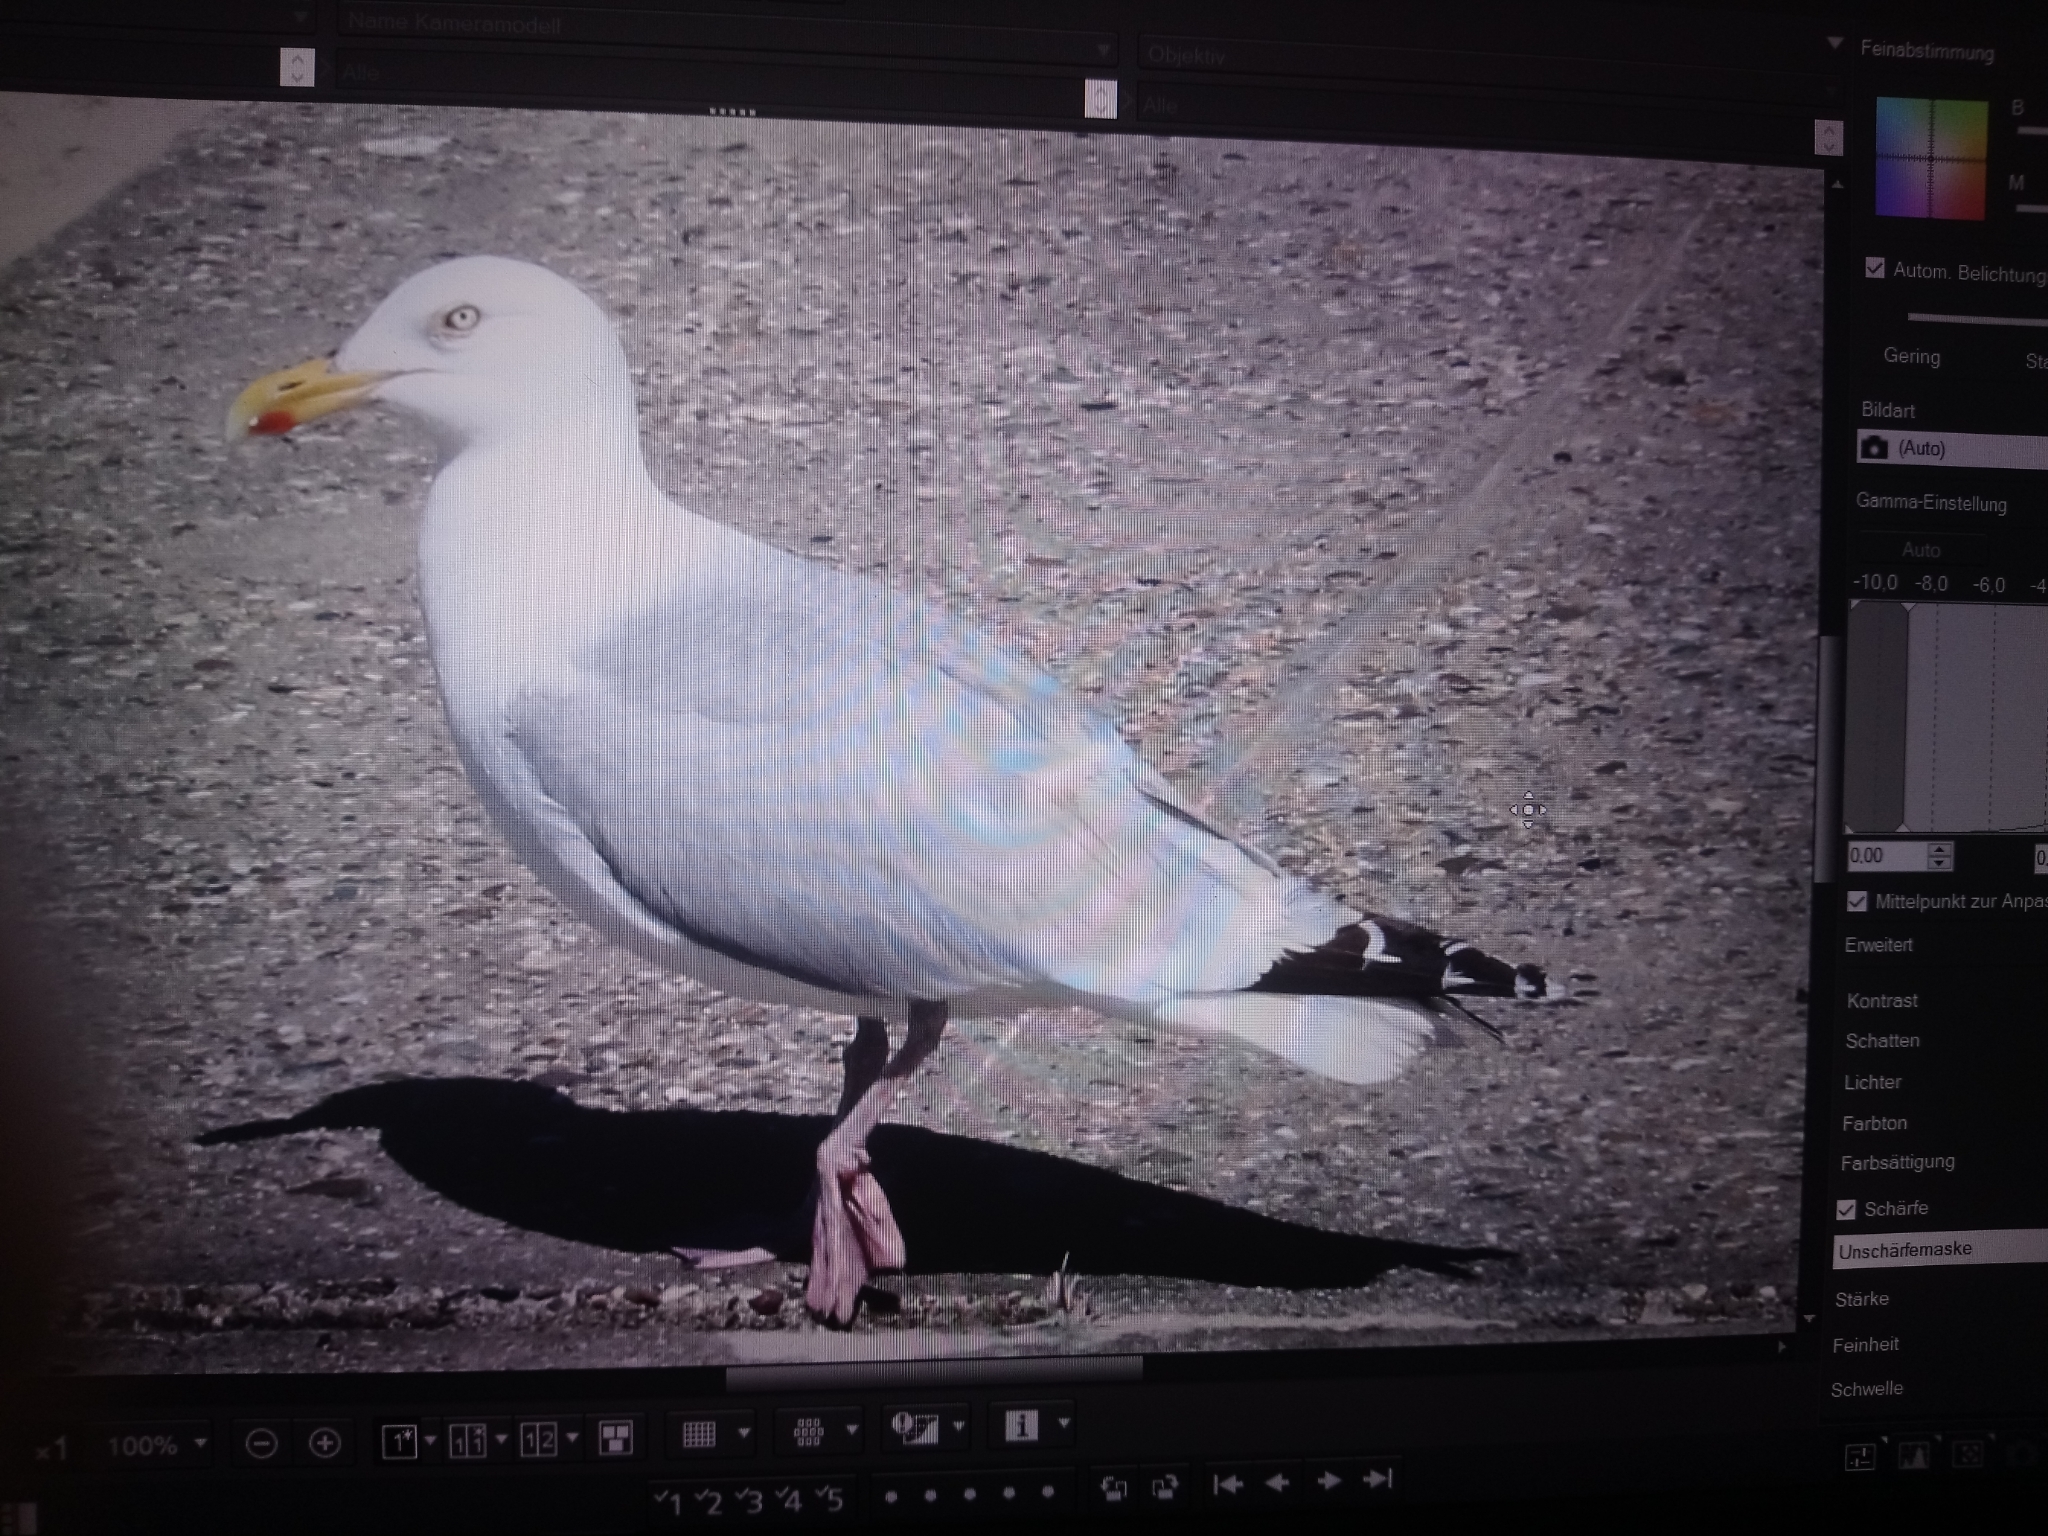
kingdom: Animalia
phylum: Chordata
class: Aves
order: Charadriiformes
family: Laridae
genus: Larus
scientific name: Larus argentatus
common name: Herring gull
